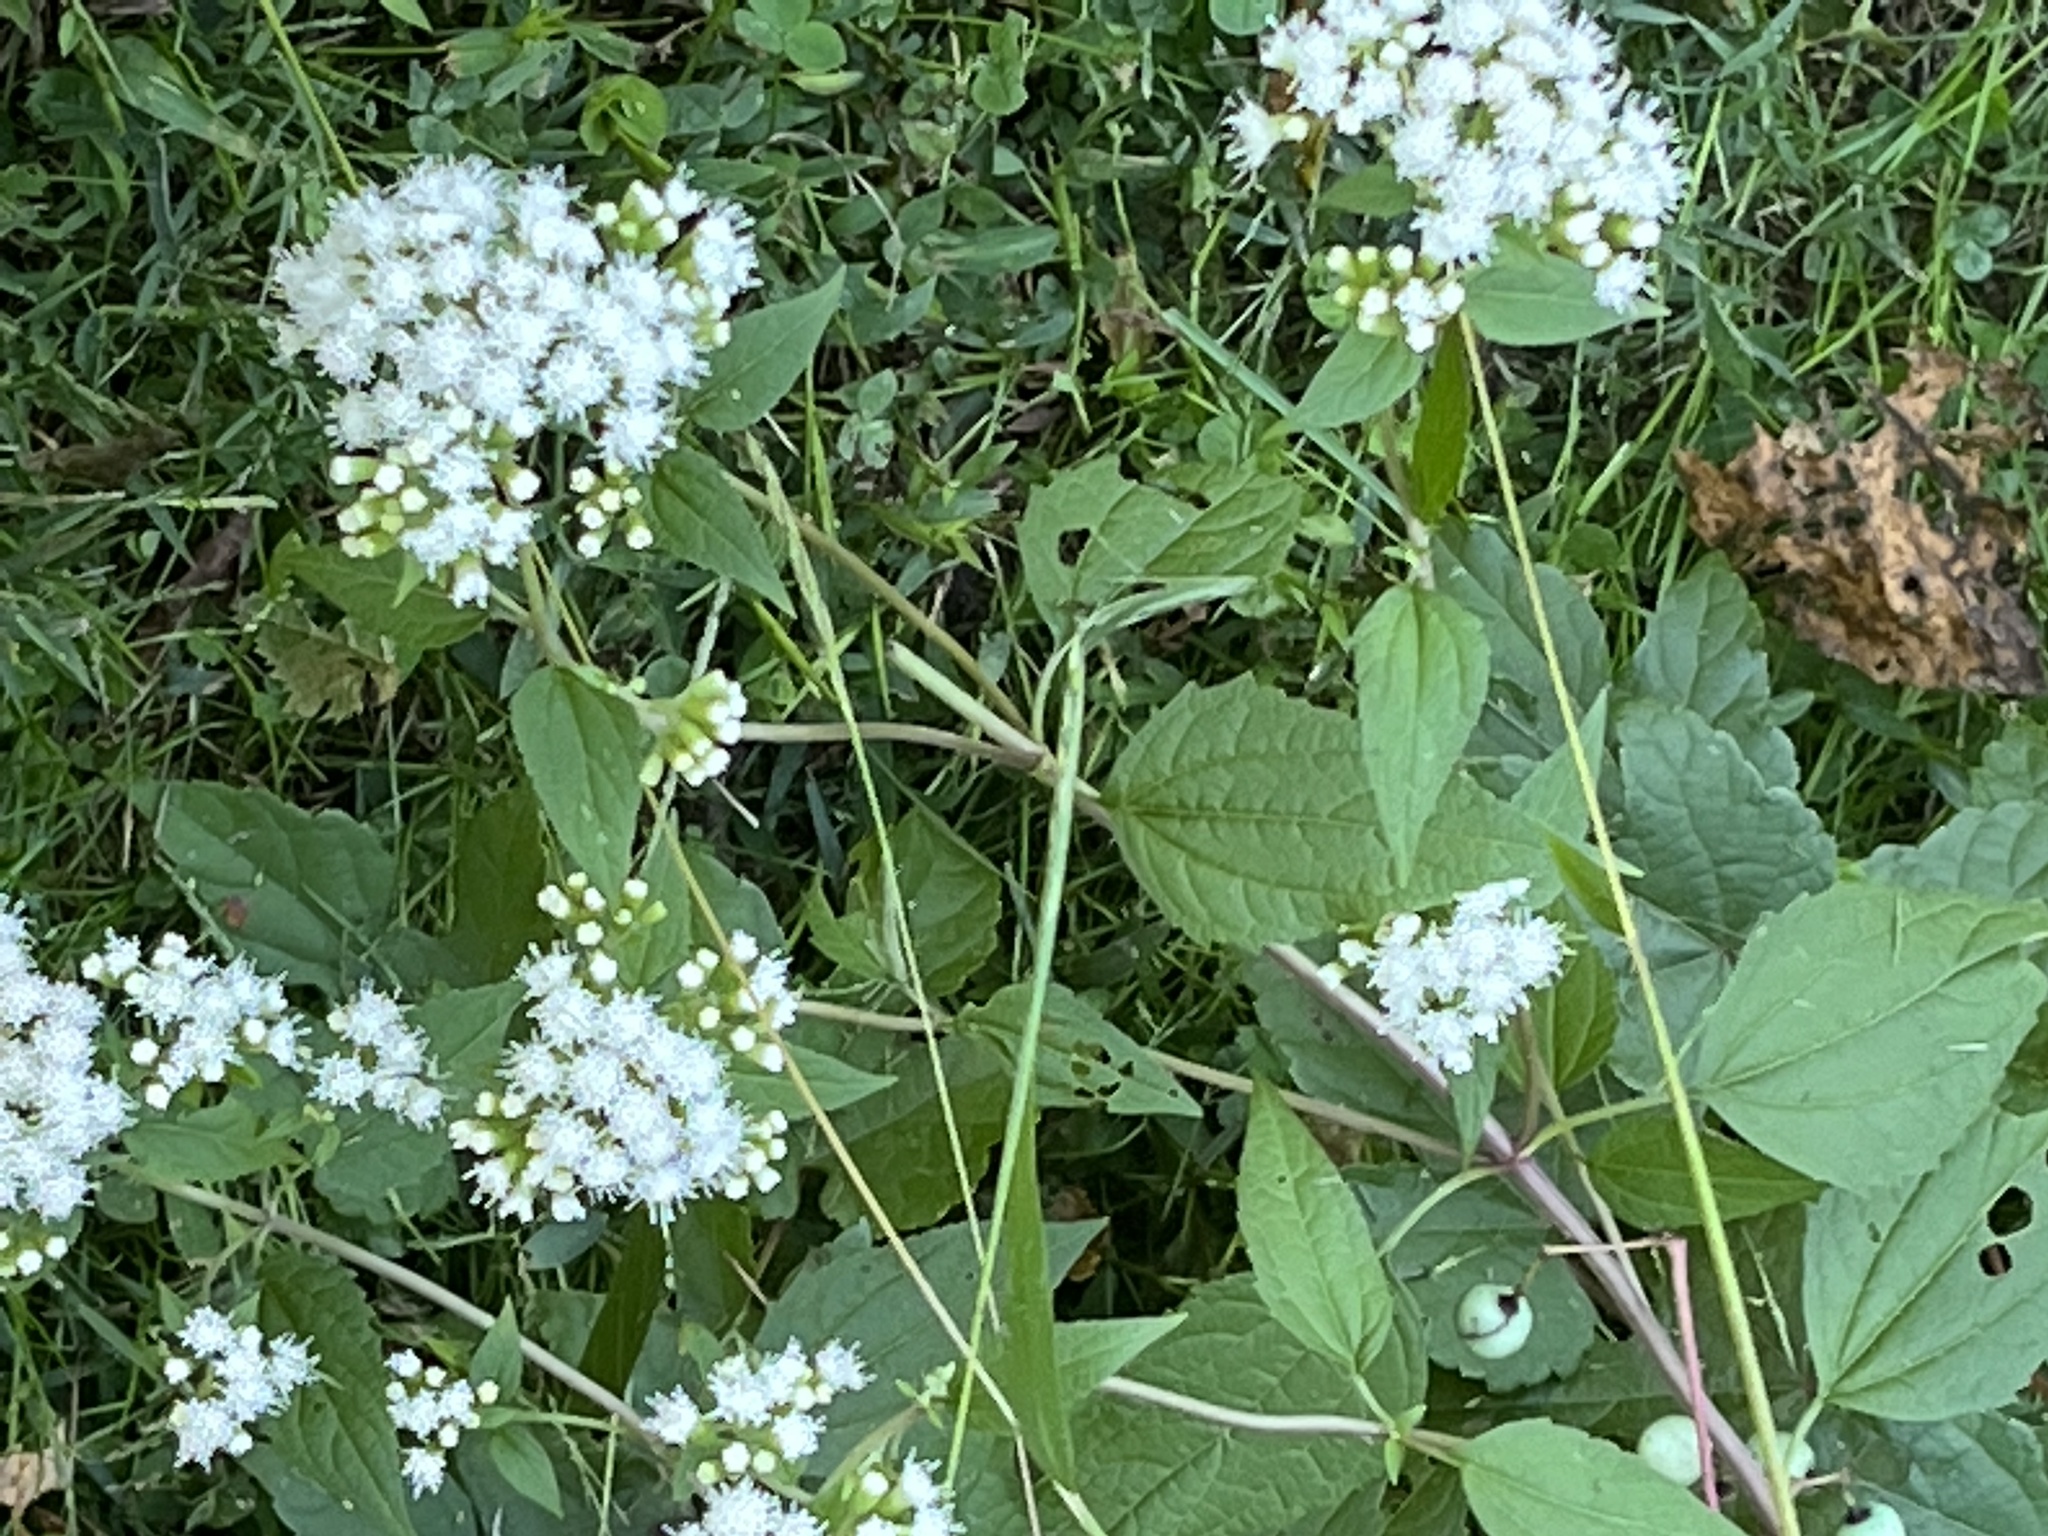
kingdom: Plantae
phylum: Tracheophyta
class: Magnoliopsida
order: Asterales
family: Asteraceae
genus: Ageratina
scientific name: Ageratina altissima
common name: White snakeroot
